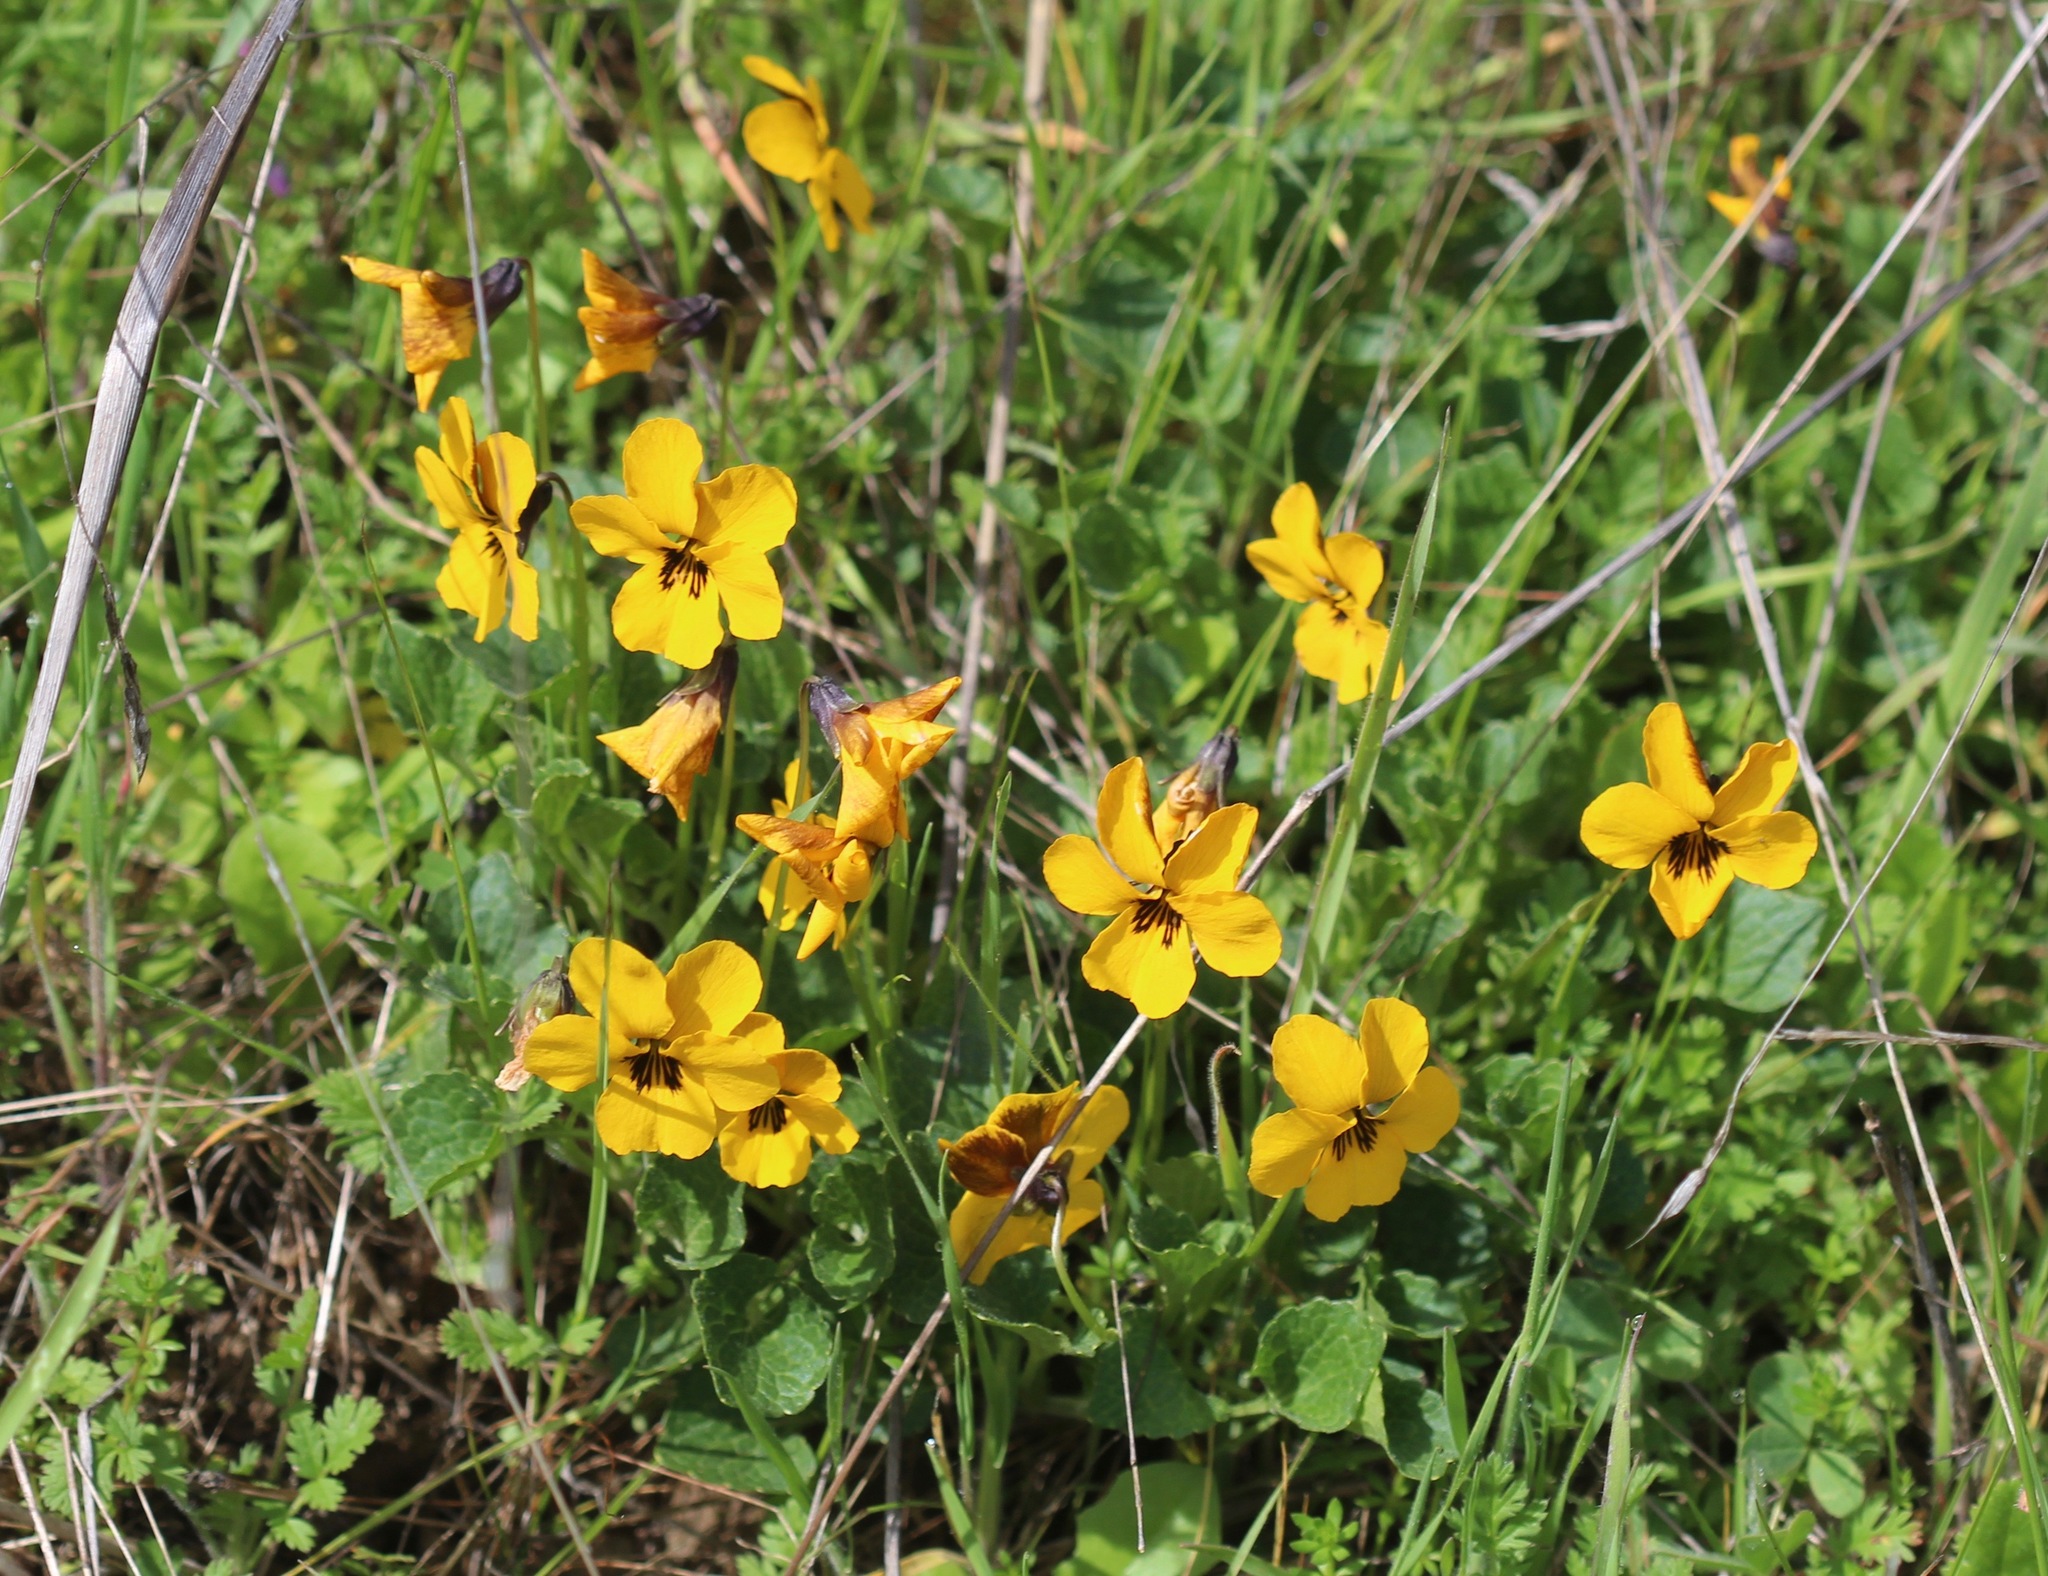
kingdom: Plantae
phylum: Tracheophyta
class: Magnoliopsida
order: Malpighiales
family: Violaceae
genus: Viola
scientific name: Viola pedunculata
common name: California golden violet
